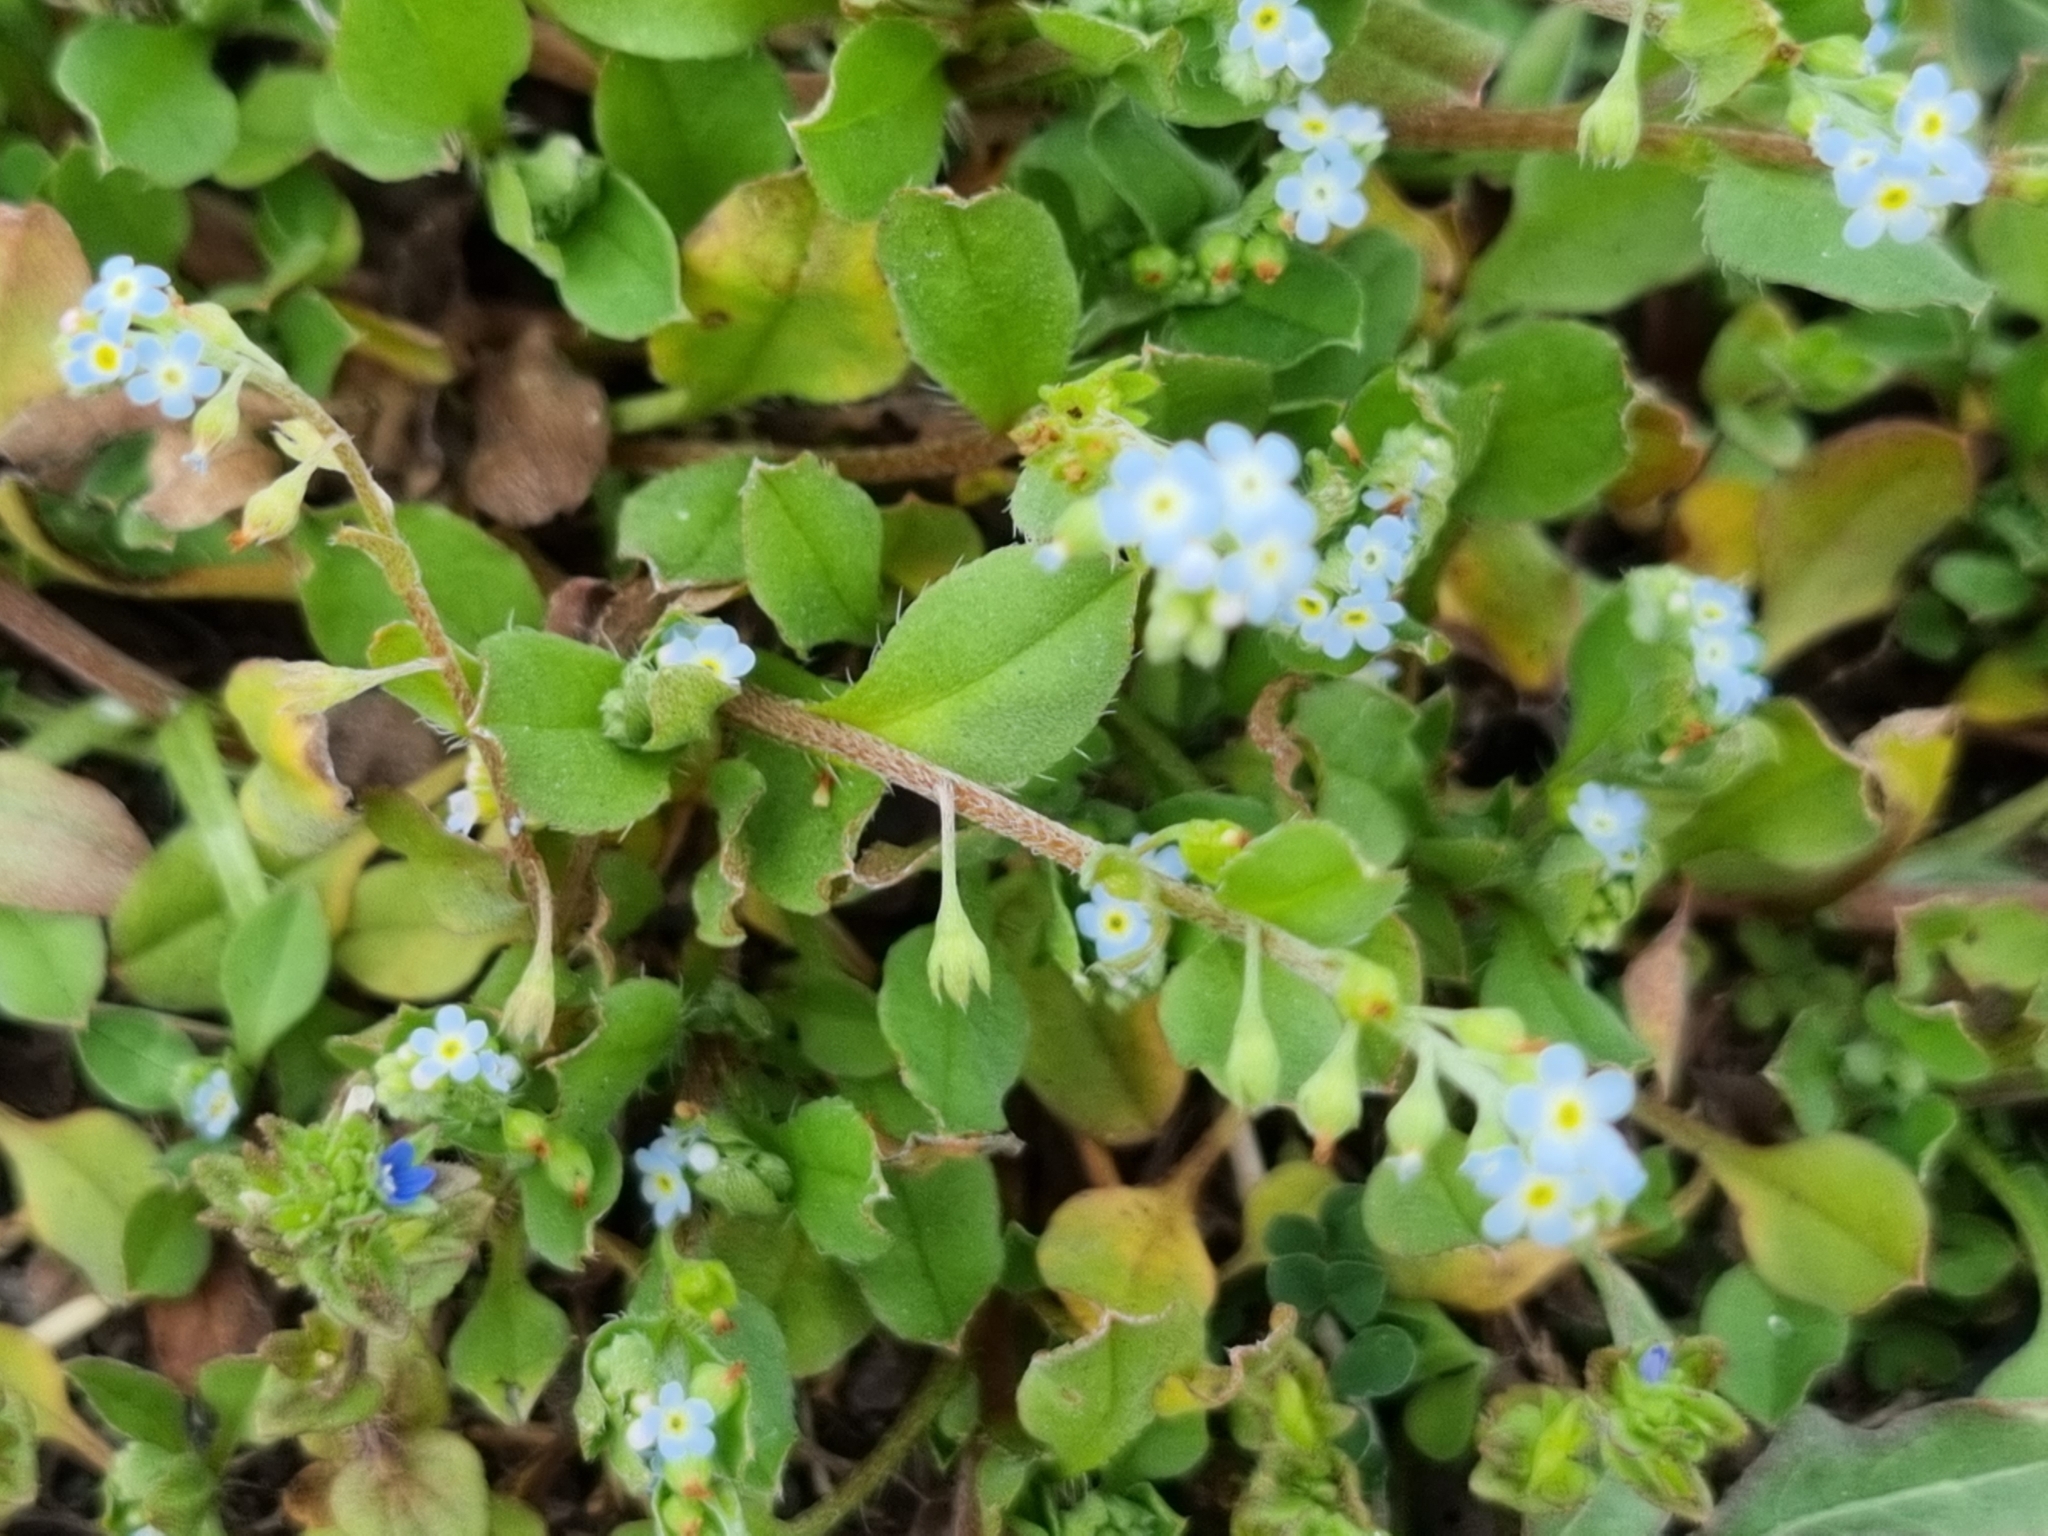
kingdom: Plantae
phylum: Tracheophyta
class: Magnoliopsida
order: Boraginales
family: Boraginaceae
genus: Trigonotis
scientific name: Trigonotis peduncularis
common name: Cucumber herb
